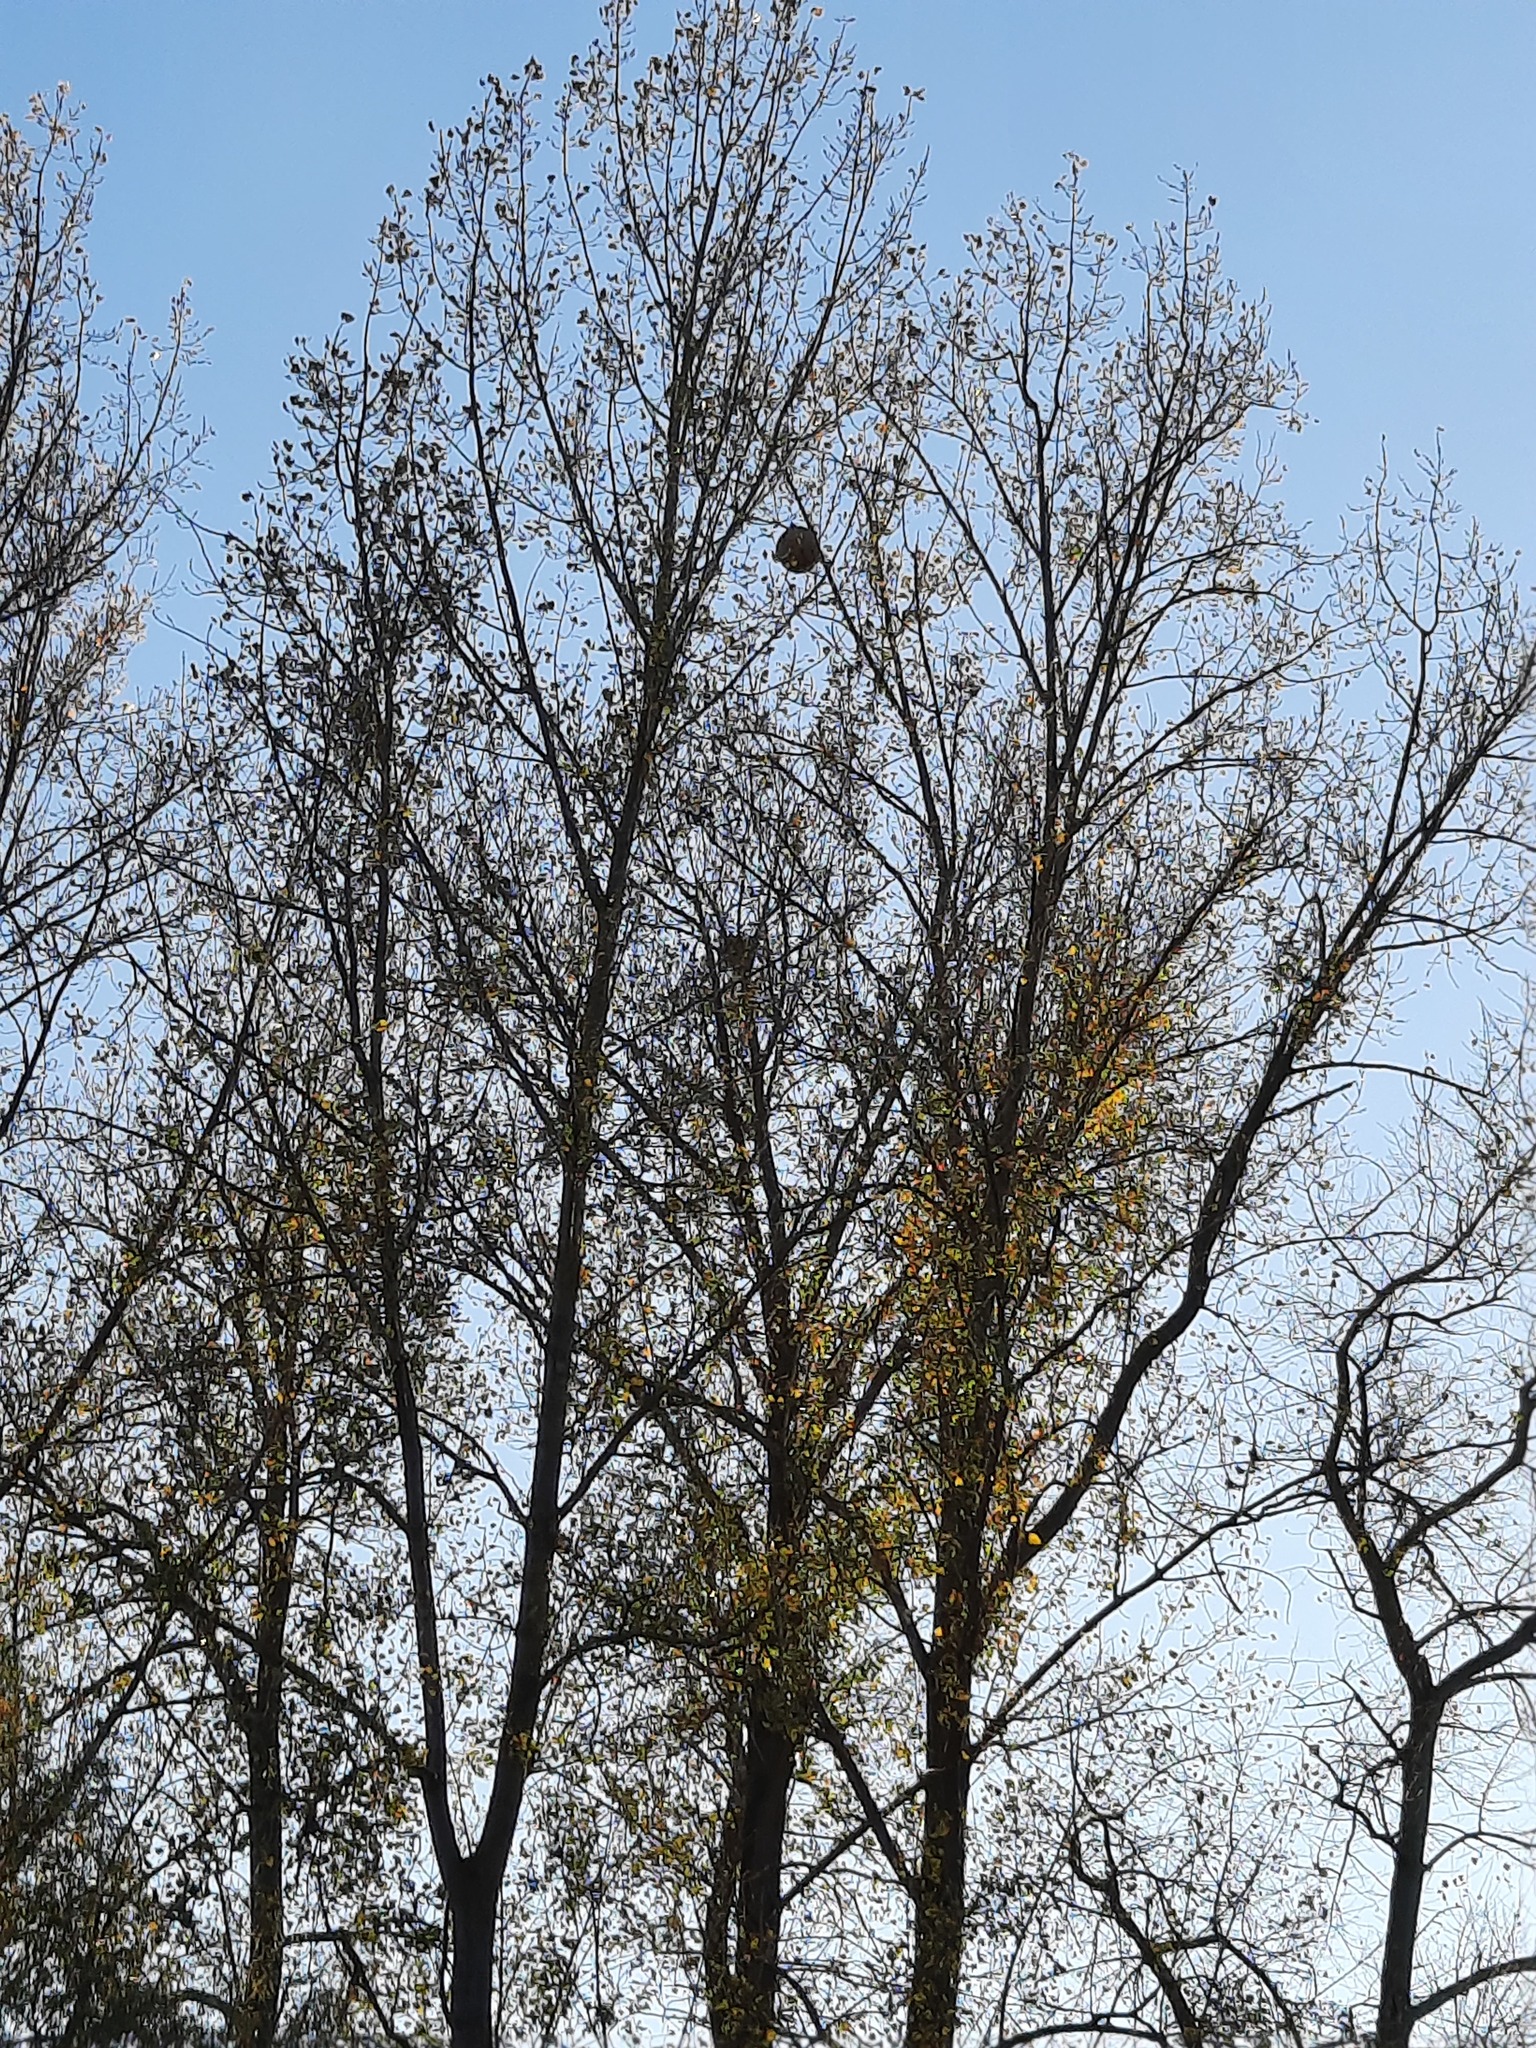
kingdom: Animalia
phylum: Arthropoda
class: Insecta
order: Hymenoptera
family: Vespidae
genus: Vespa
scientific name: Vespa velutina
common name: Asian hornet
